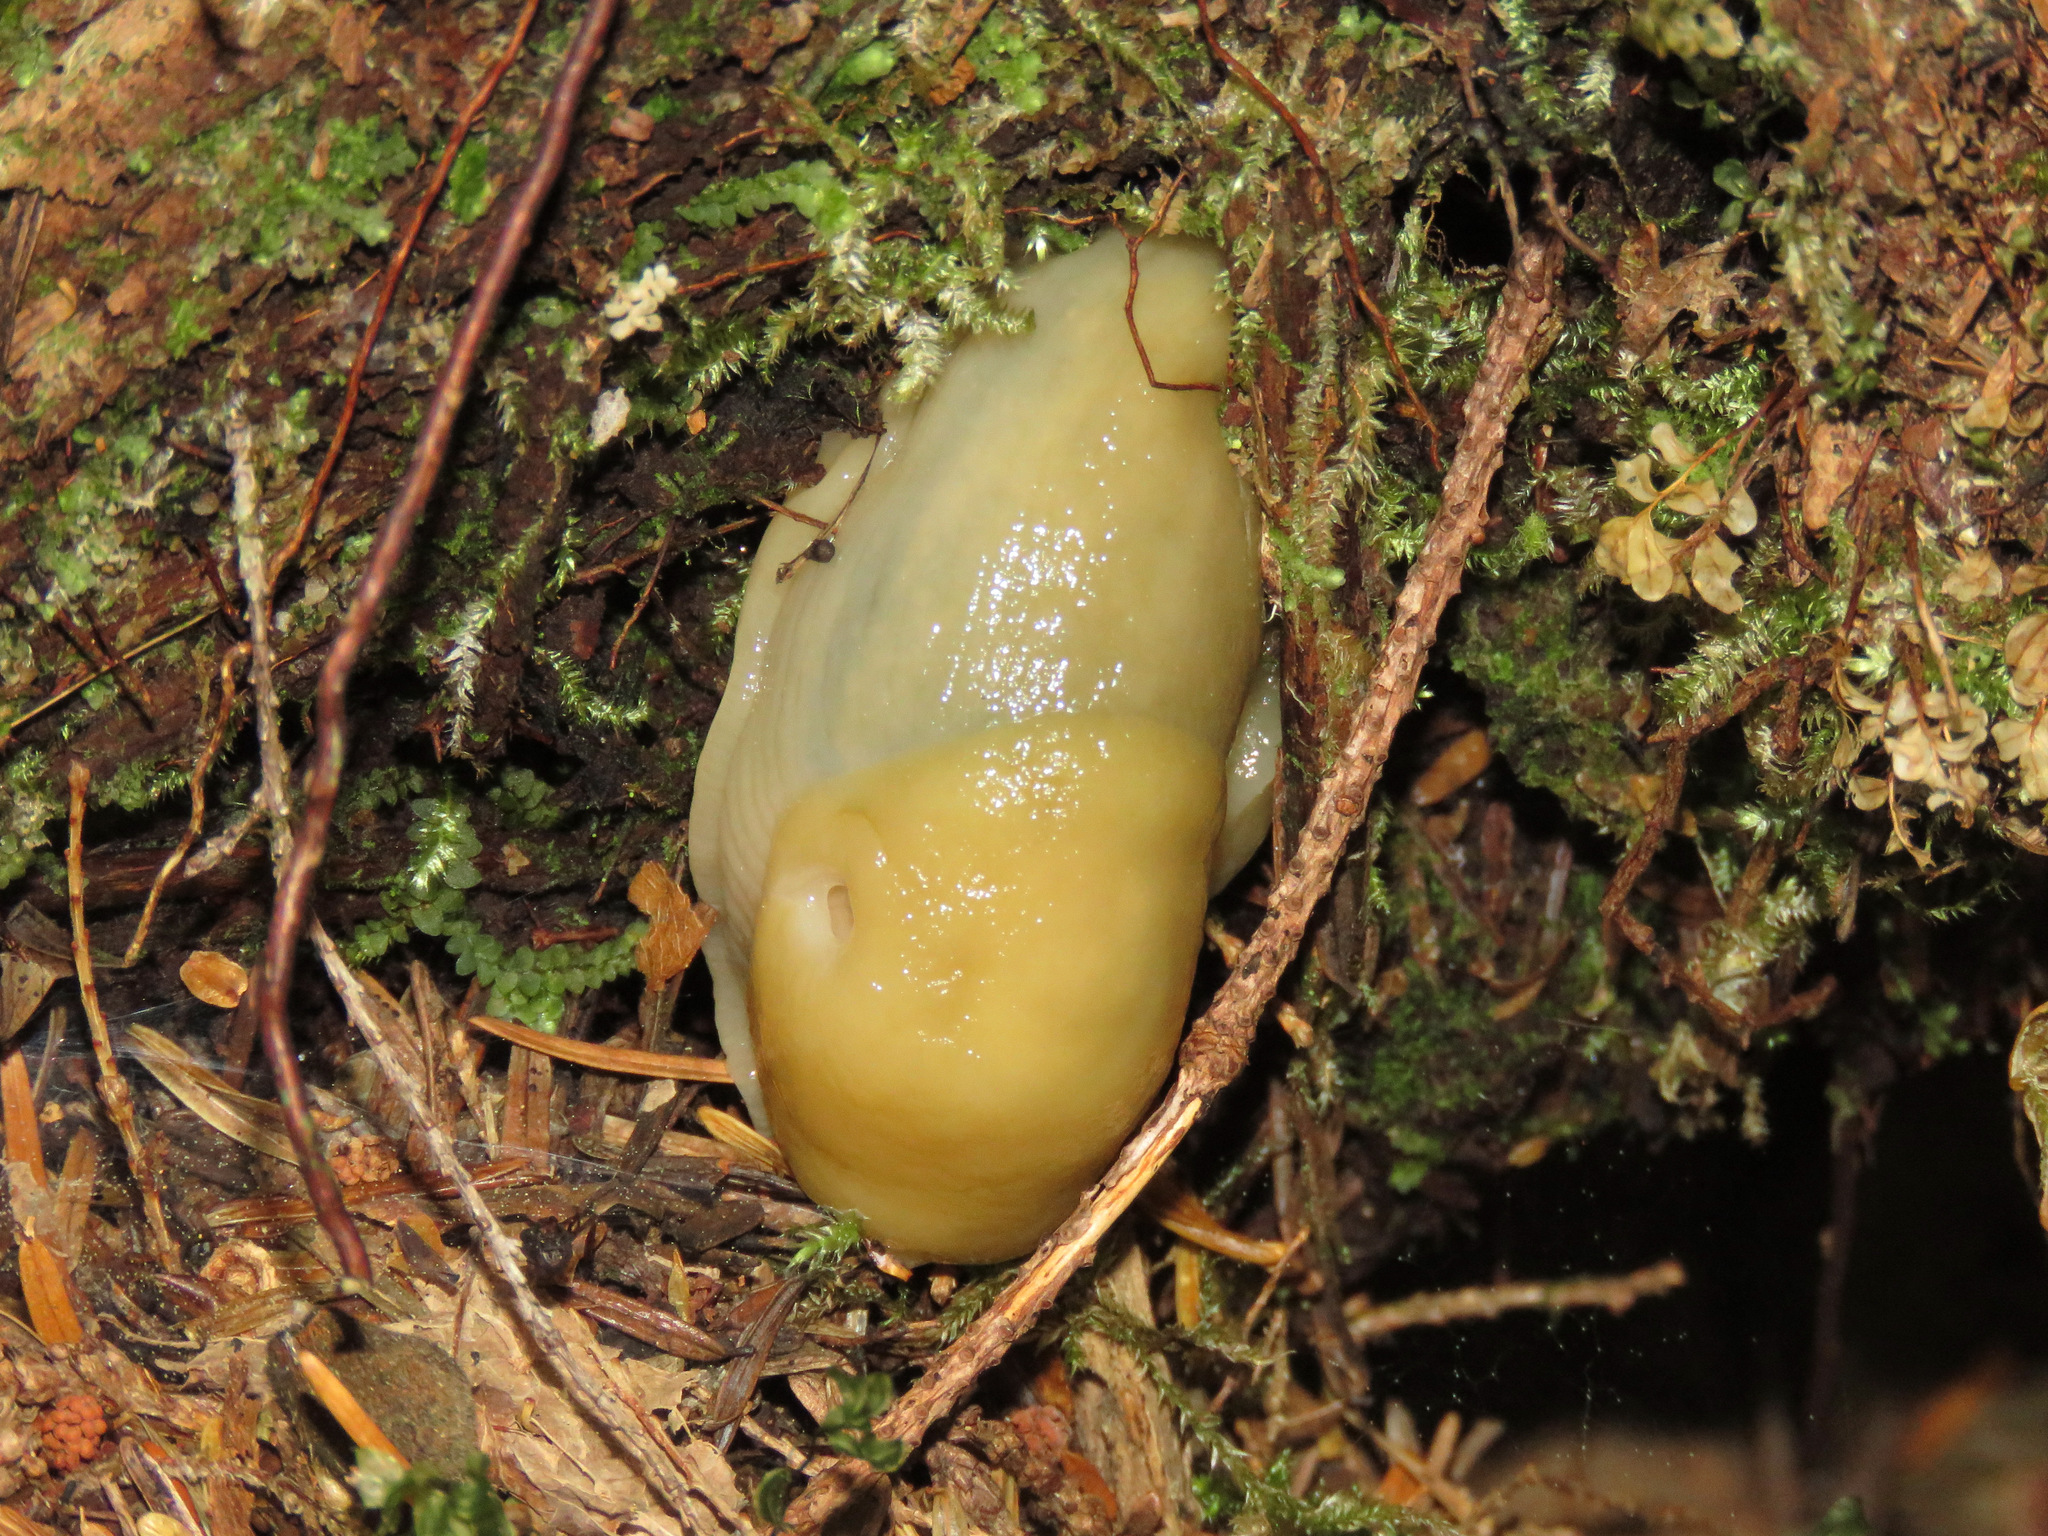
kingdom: Animalia
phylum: Mollusca
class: Gastropoda
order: Stylommatophora
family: Ariolimacidae
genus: Ariolimax
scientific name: Ariolimax columbianus
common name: Pacific banana slug
